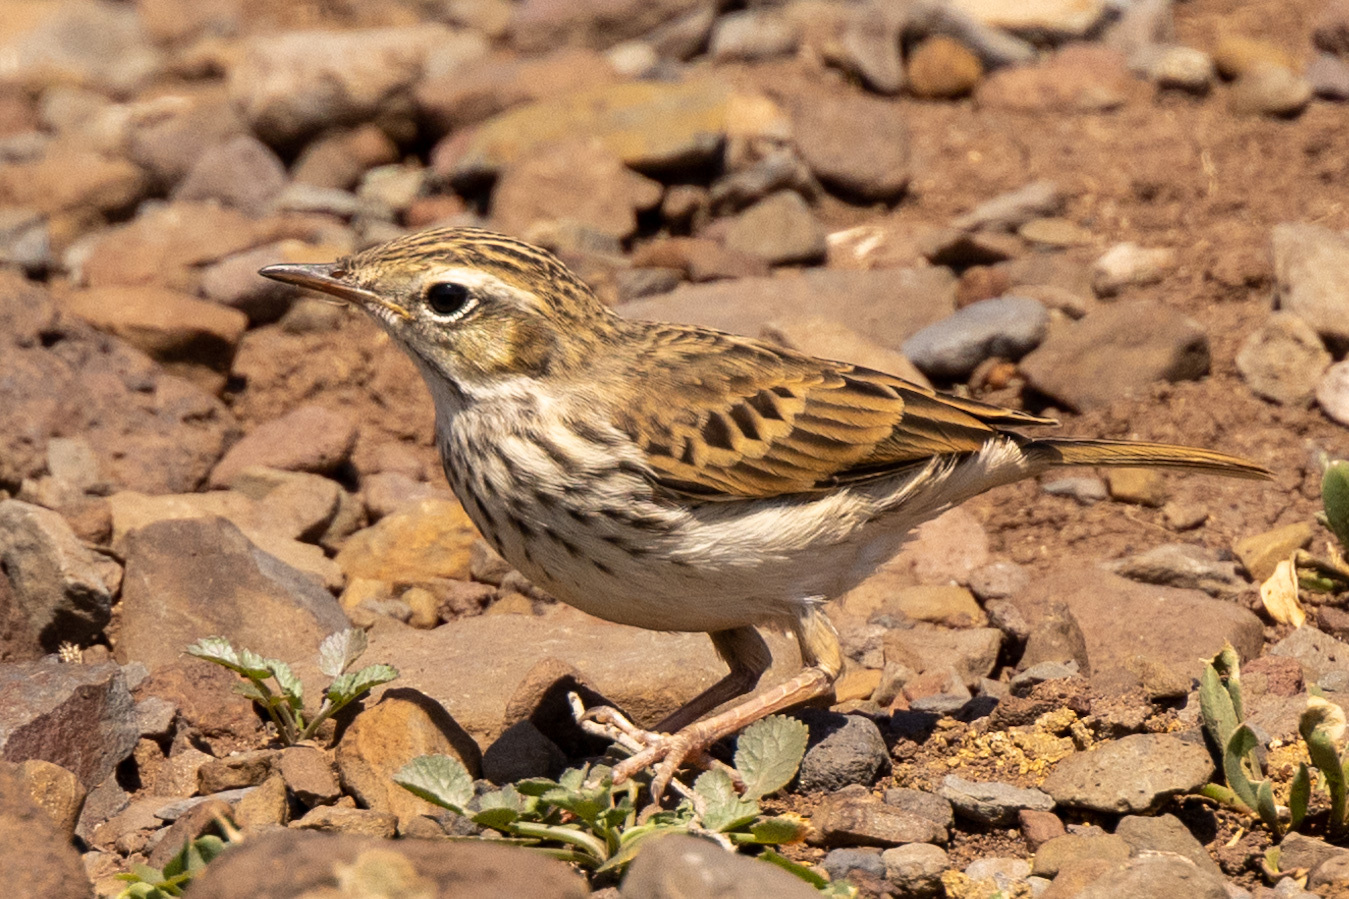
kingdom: Animalia
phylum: Chordata
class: Aves
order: Passeriformes
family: Motacillidae
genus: Anthus
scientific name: Anthus berthelotii
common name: Berthelot's pipit
